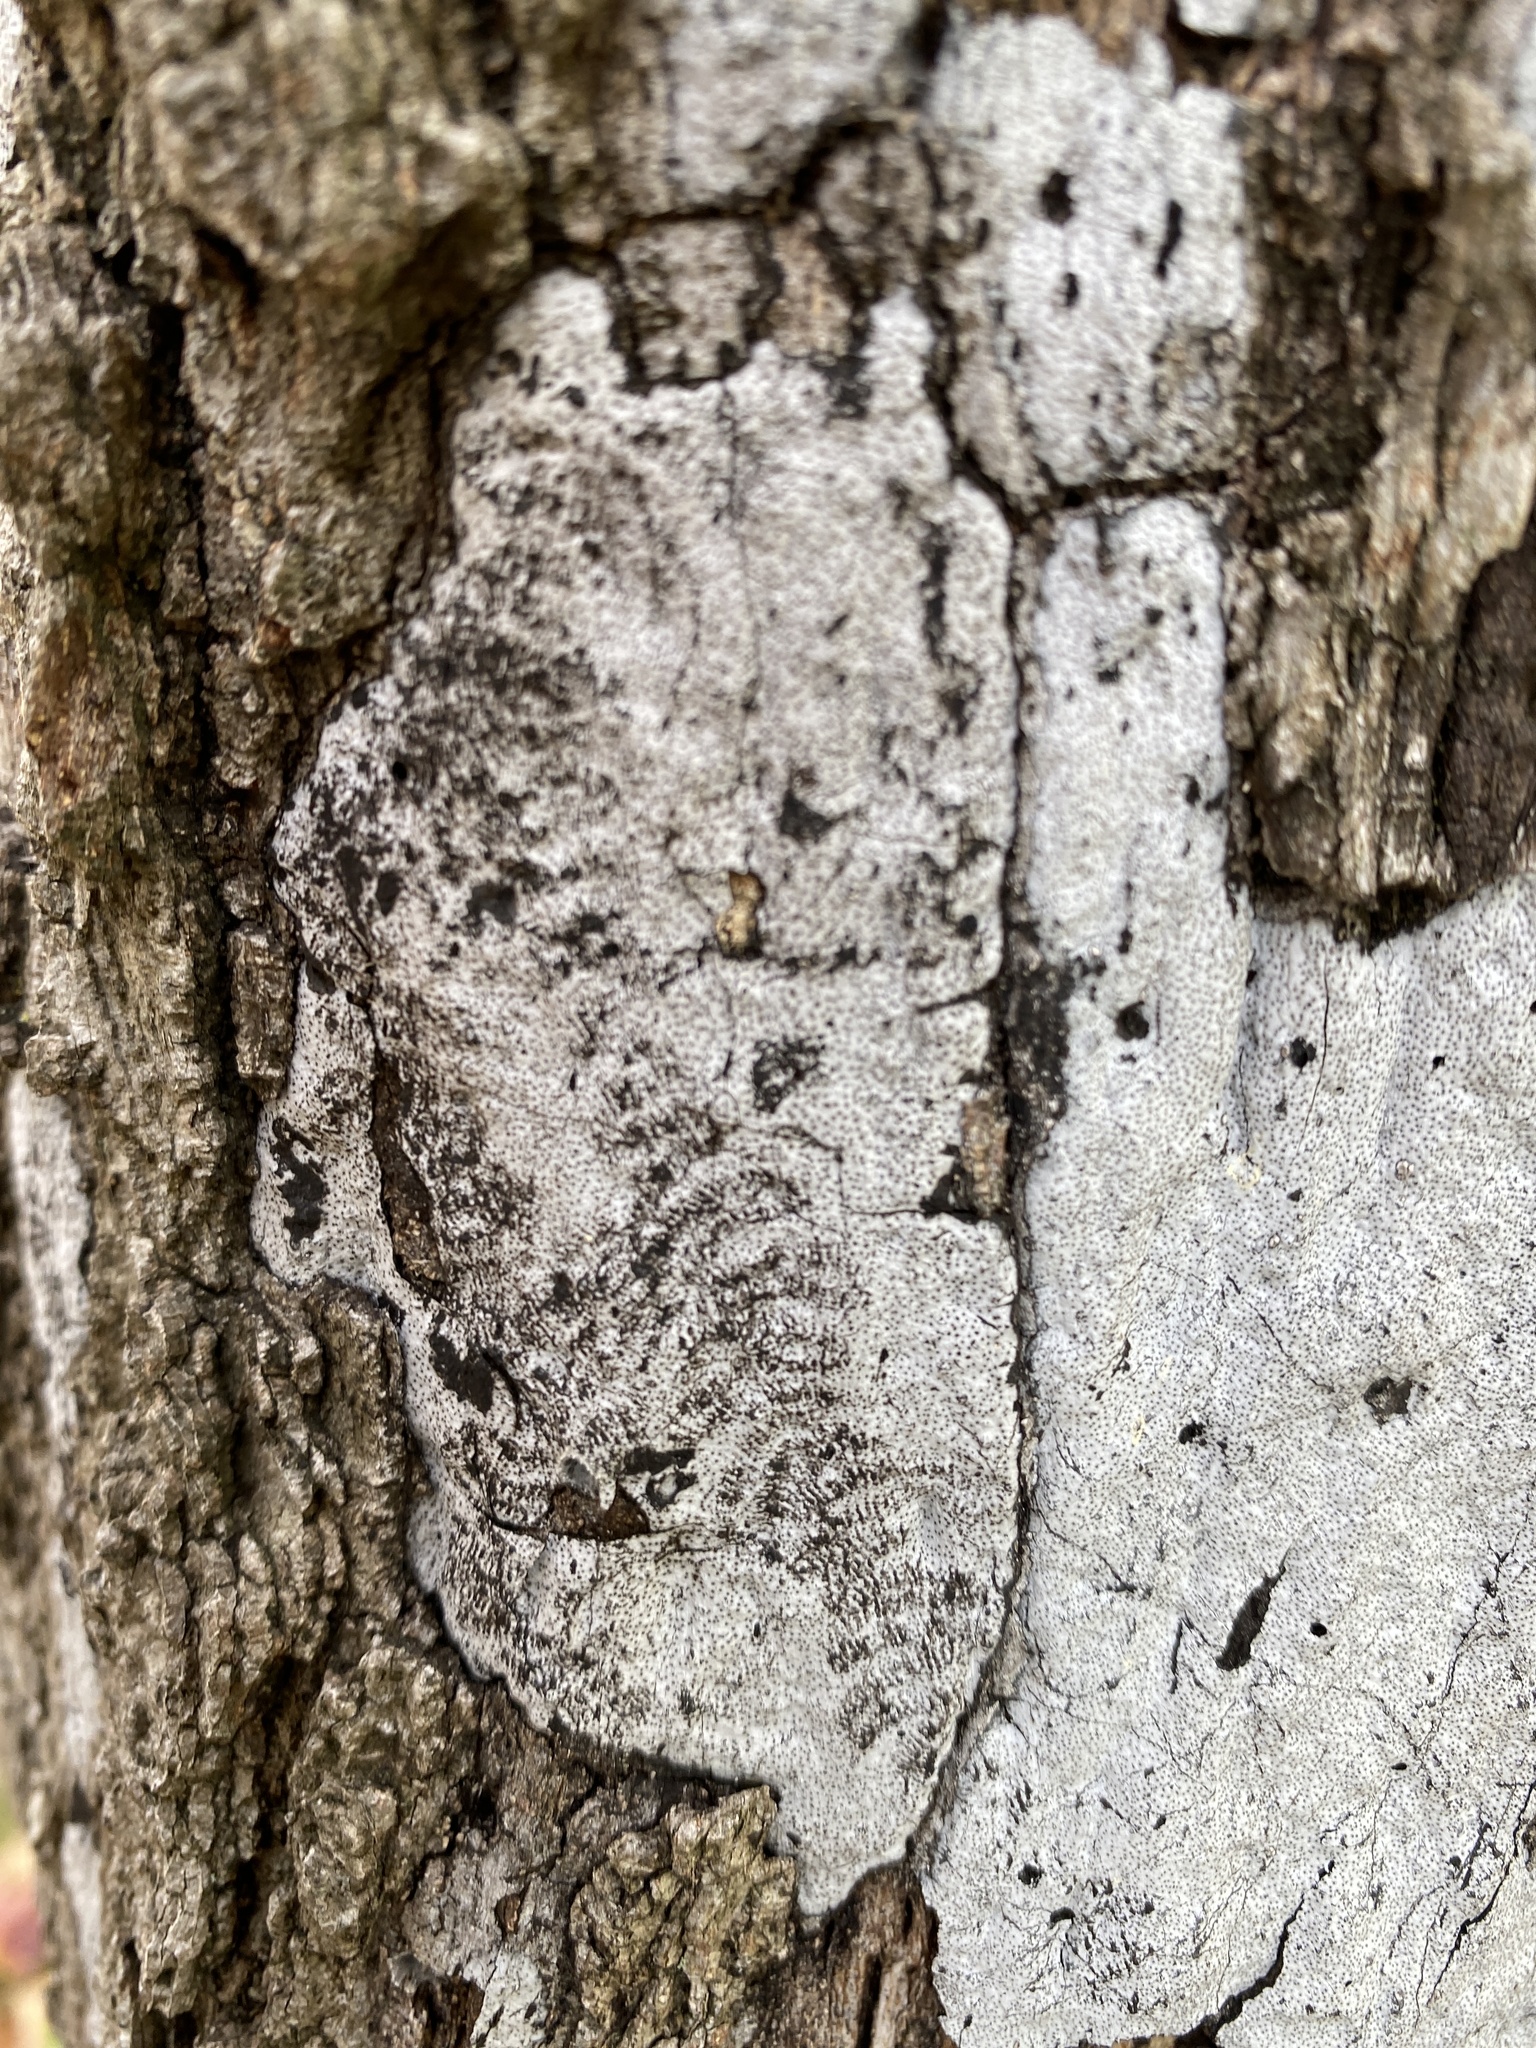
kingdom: Fungi
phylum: Ascomycota
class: Sordariomycetes
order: Xylariales
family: Graphostromataceae
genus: Biscogniauxia
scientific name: Biscogniauxia atropunctata
